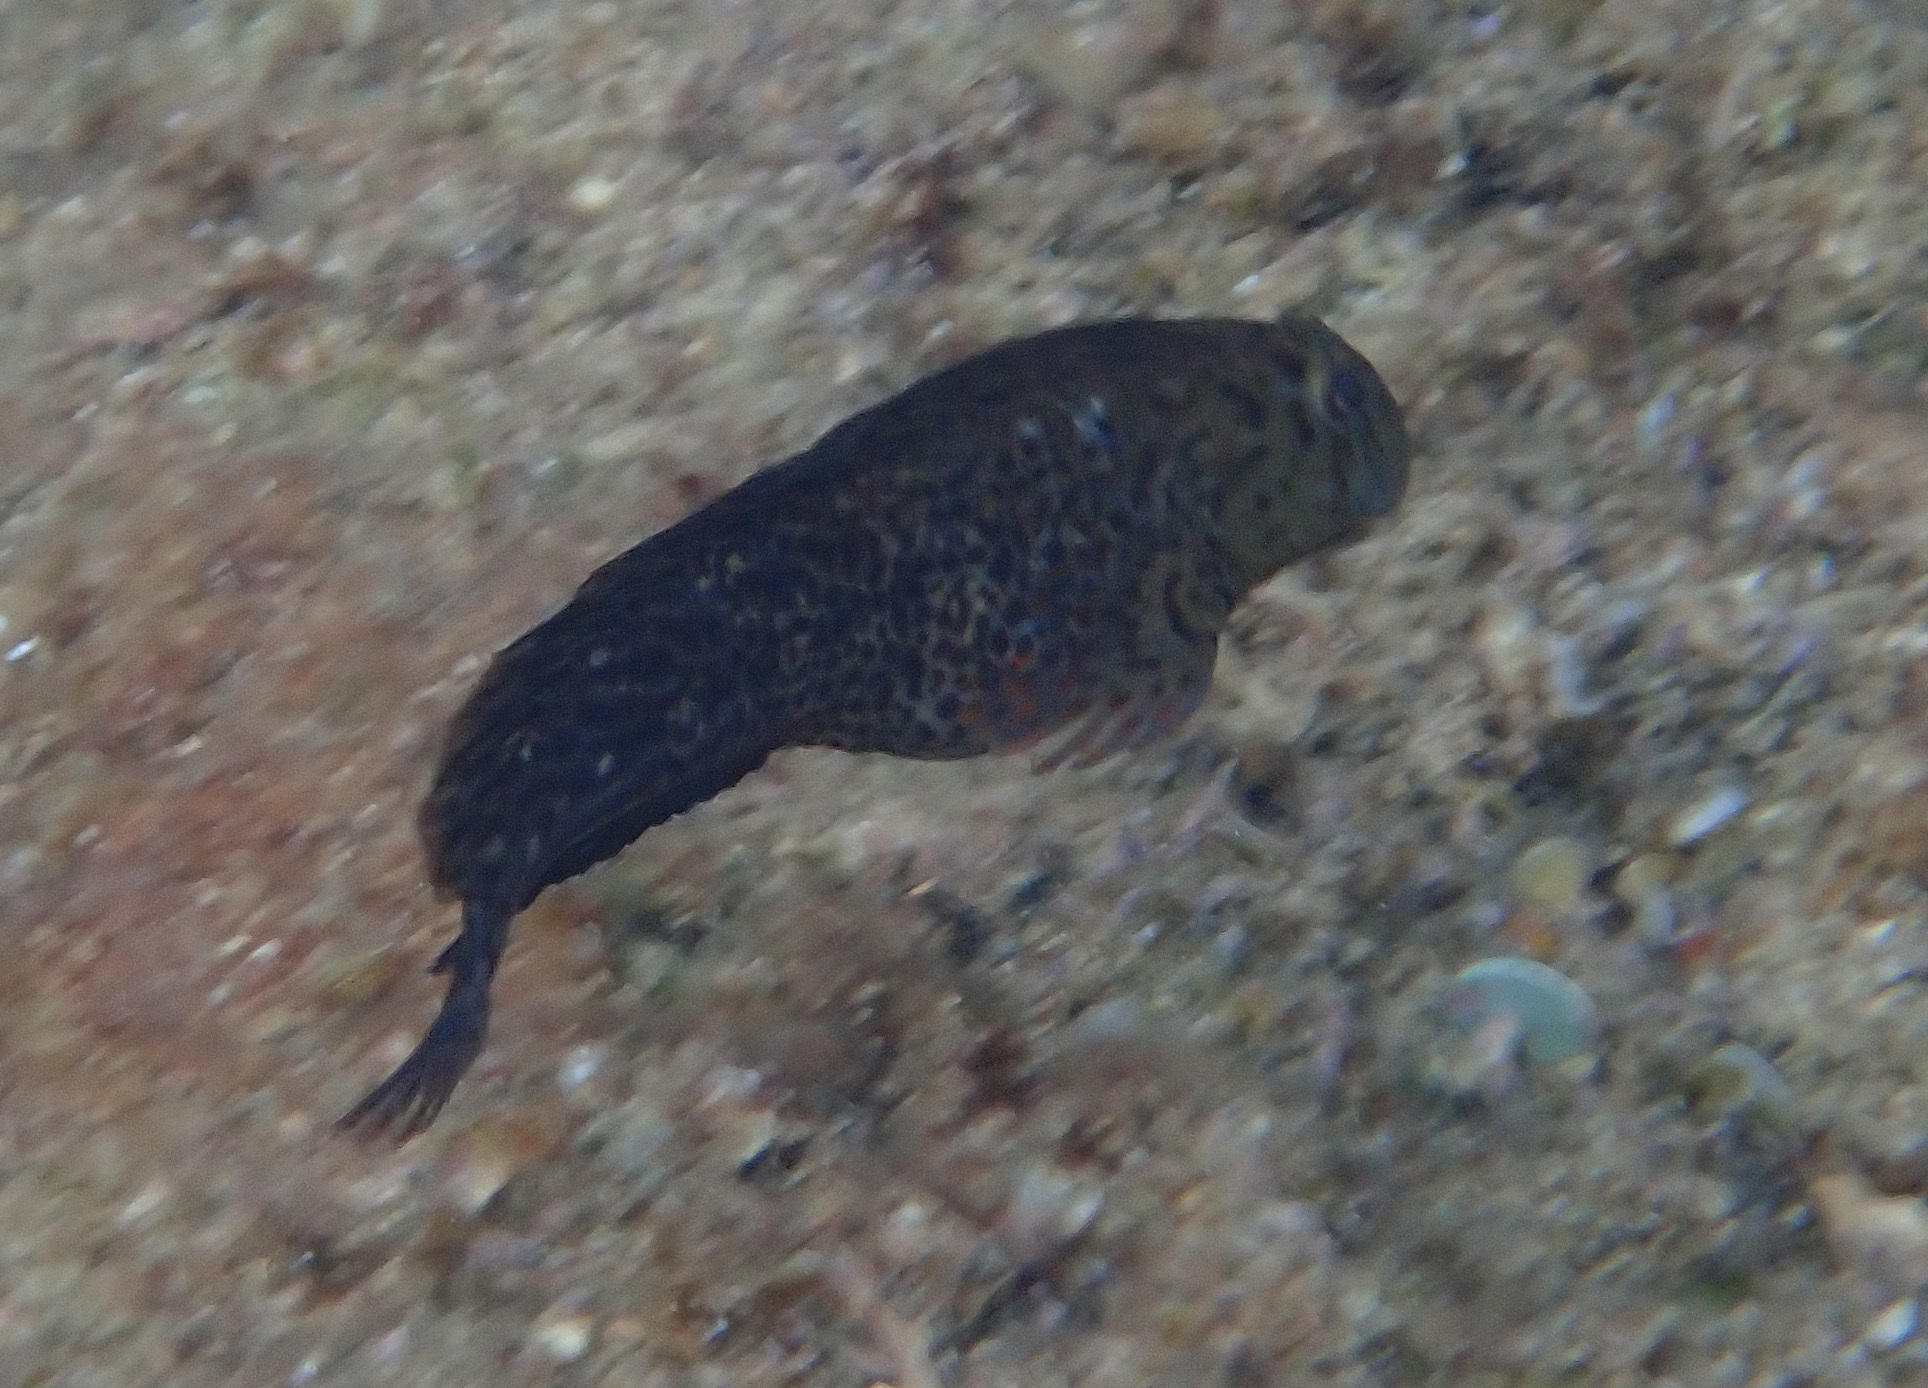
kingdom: Animalia
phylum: Chordata
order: Perciformes
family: Blenniidae
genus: Parablennius
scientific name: Parablennius sanguinolentus
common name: Black sea blenny
